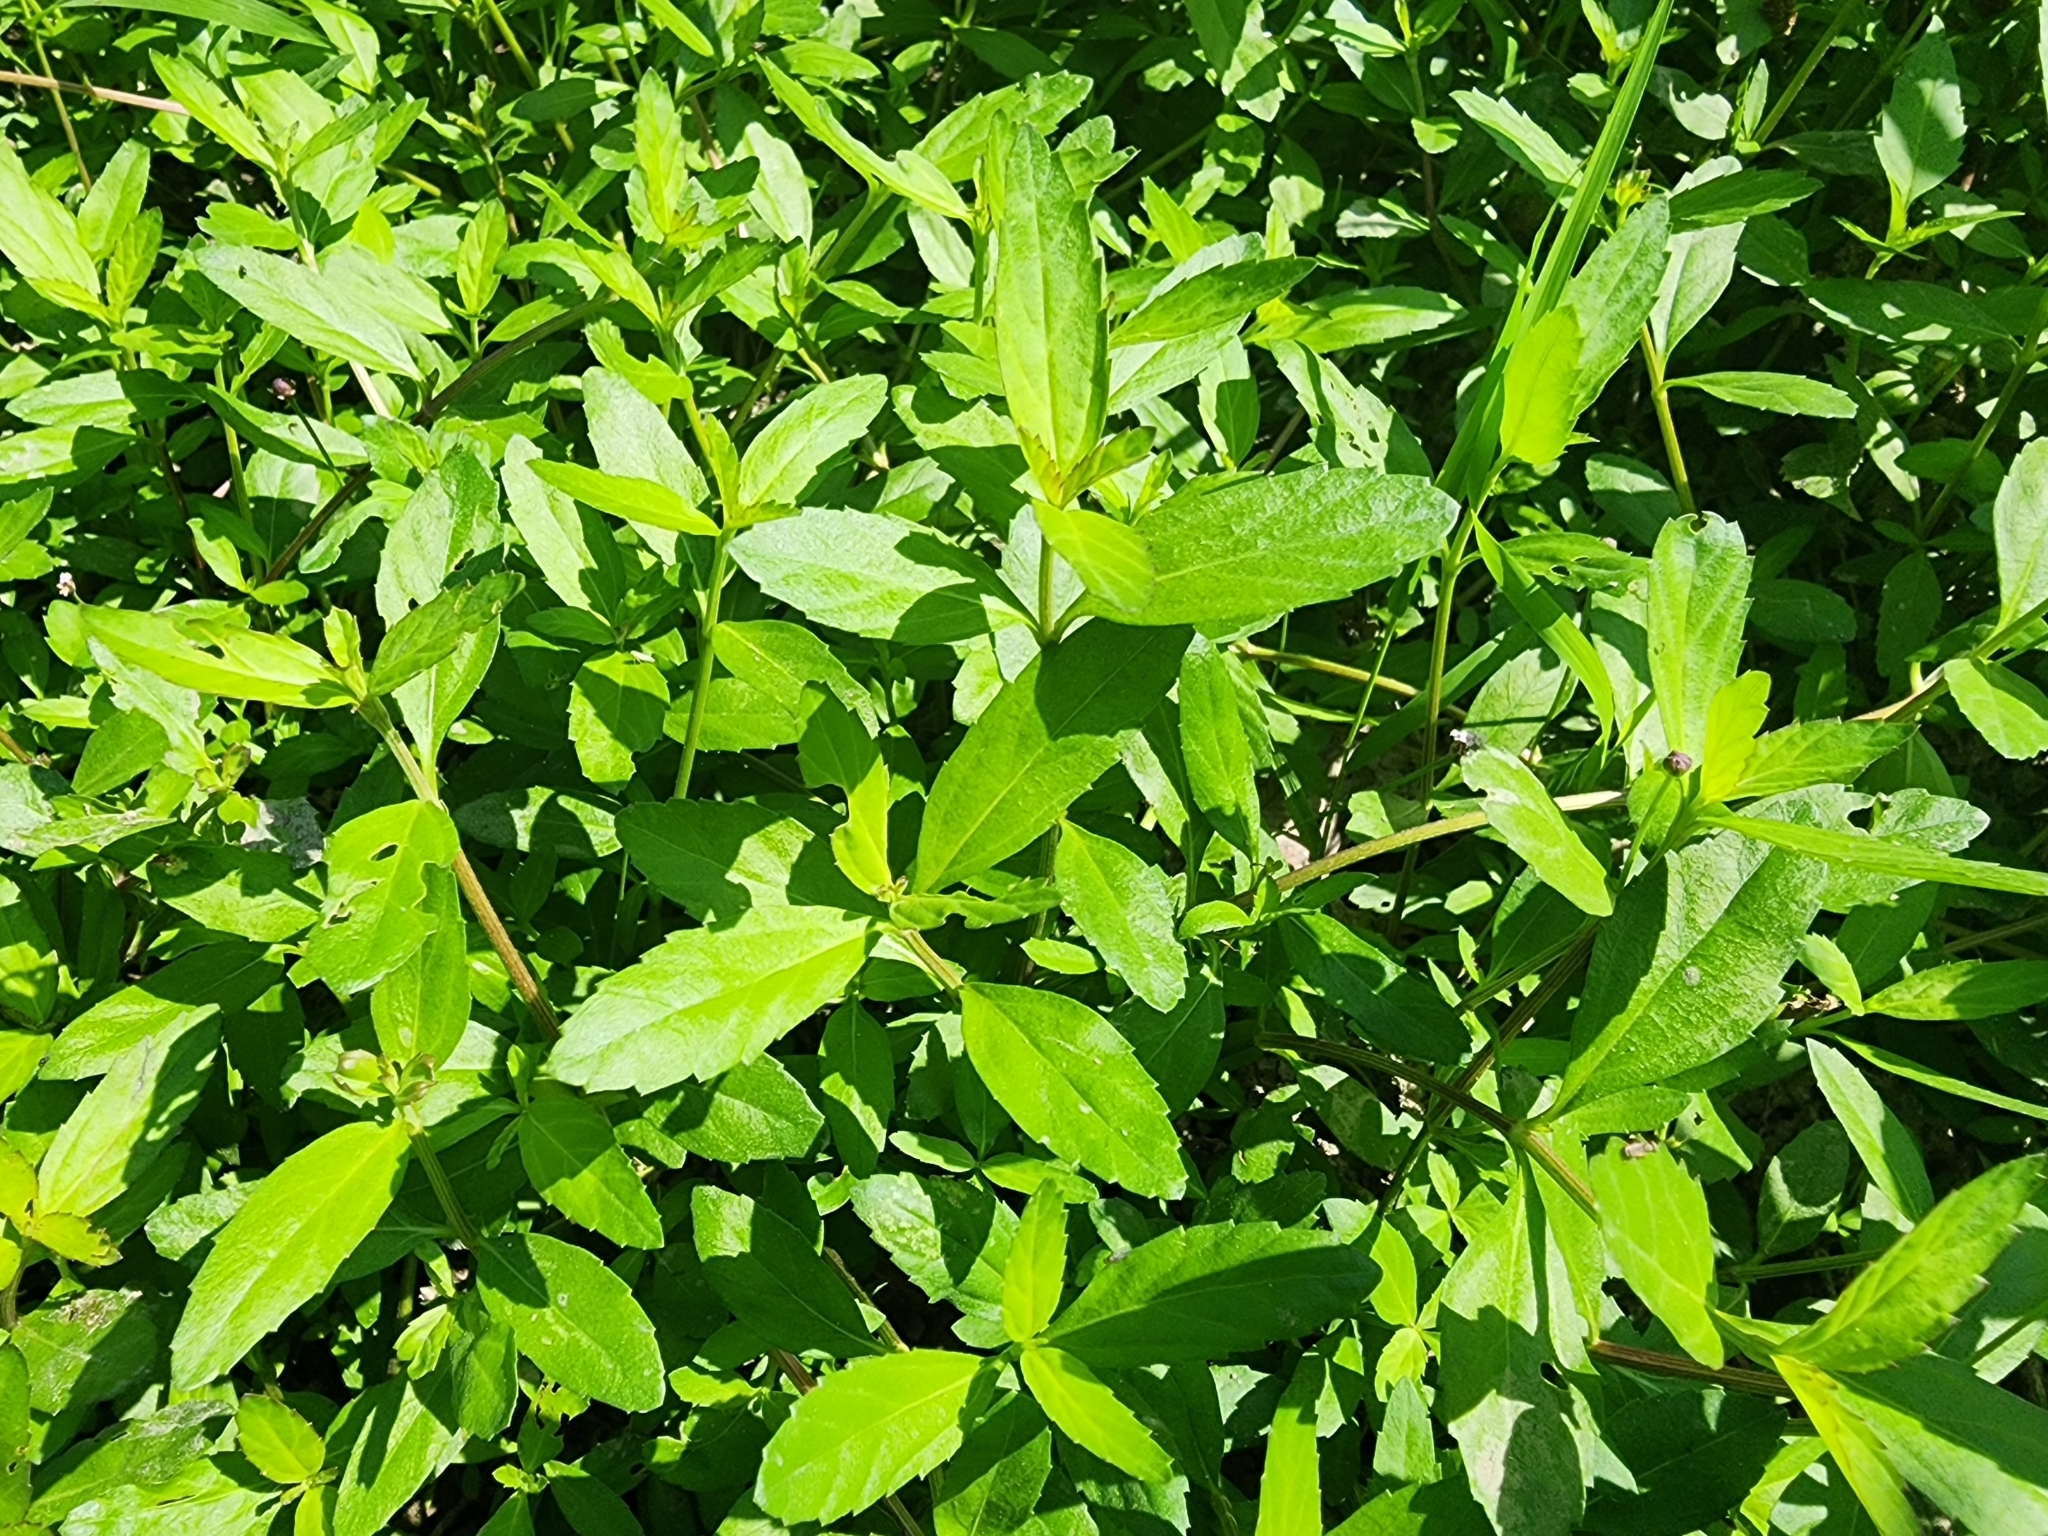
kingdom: Plantae
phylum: Tracheophyta
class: Magnoliopsida
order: Lamiales
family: Verbenaceae
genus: Phyla
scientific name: Phyla lanceolata
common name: Northern fogfruit
